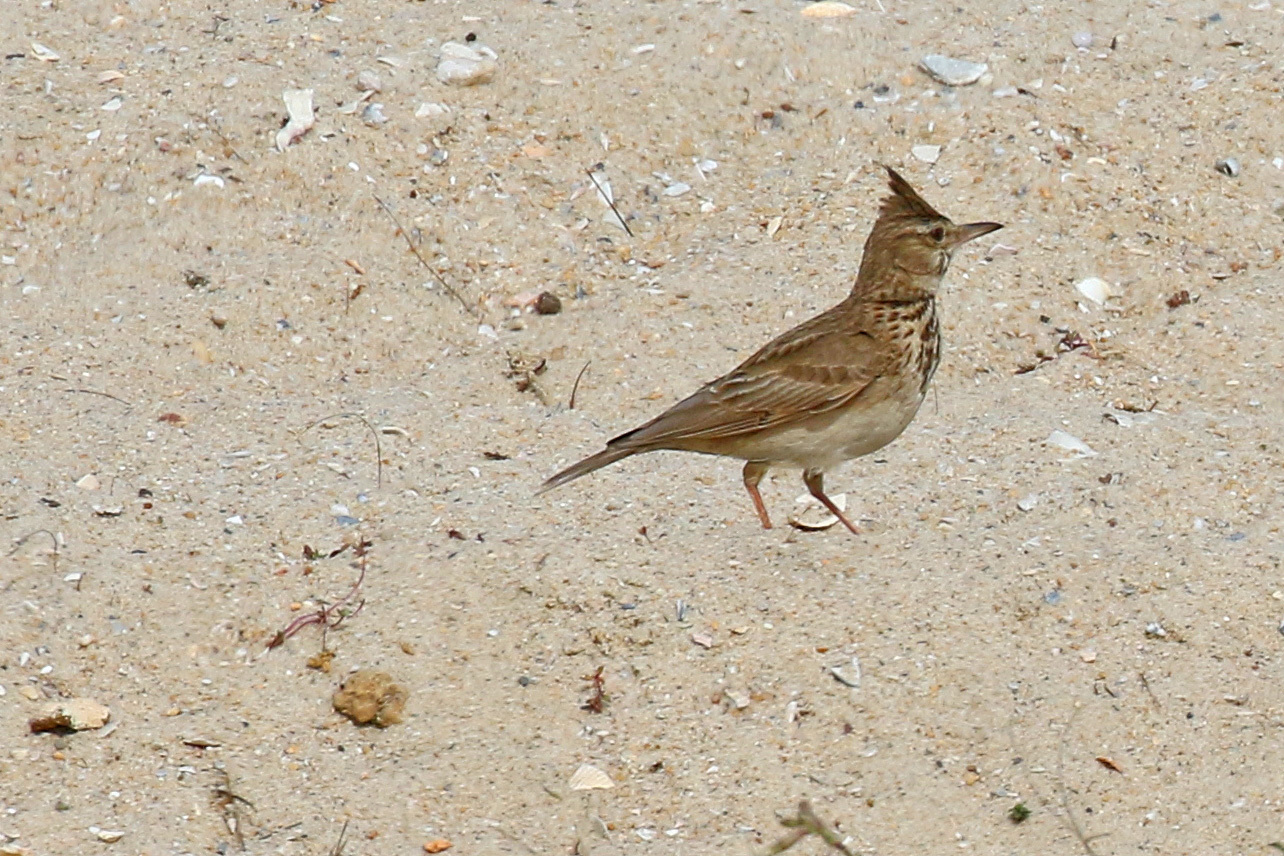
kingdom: Animalia
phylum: Chordata
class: Aves
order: Passeriformes
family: Alaudidae
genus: Galerida
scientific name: Galerida cristata
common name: Crested lark
